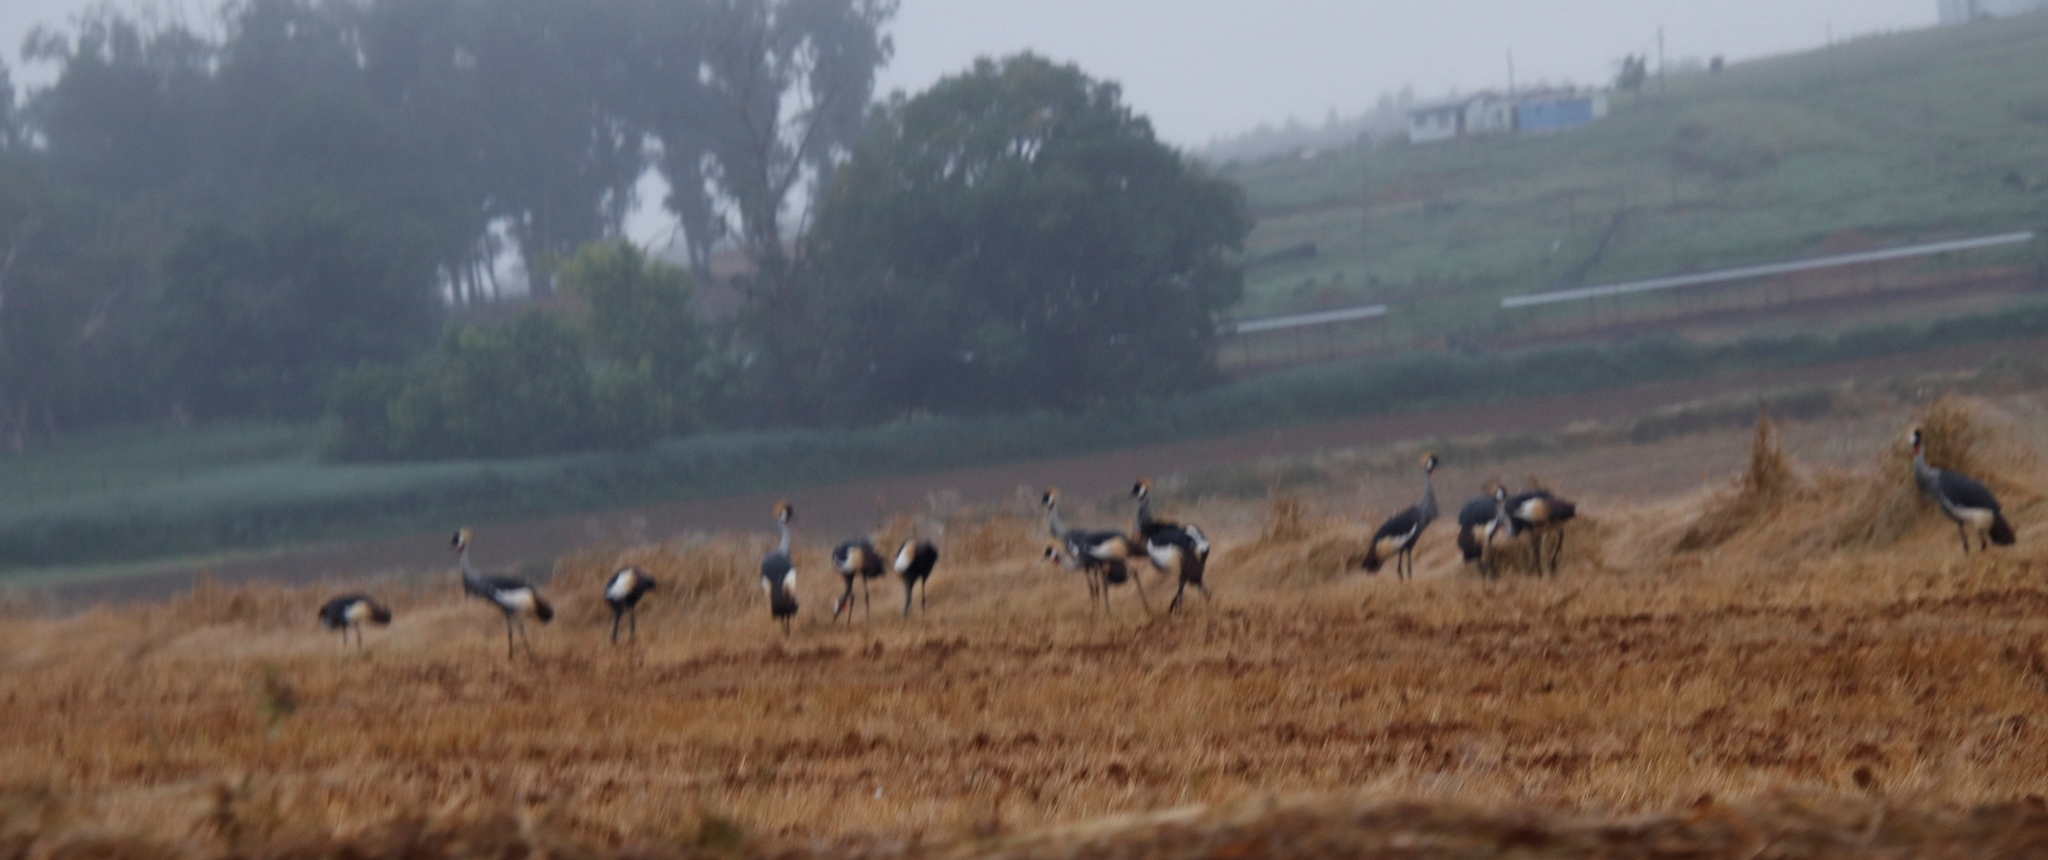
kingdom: Animalia
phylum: Chordata
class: Aves
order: Gruiformes
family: Gruidae
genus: Balearica
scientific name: Balearica regulorum
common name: Grey crowned crane
